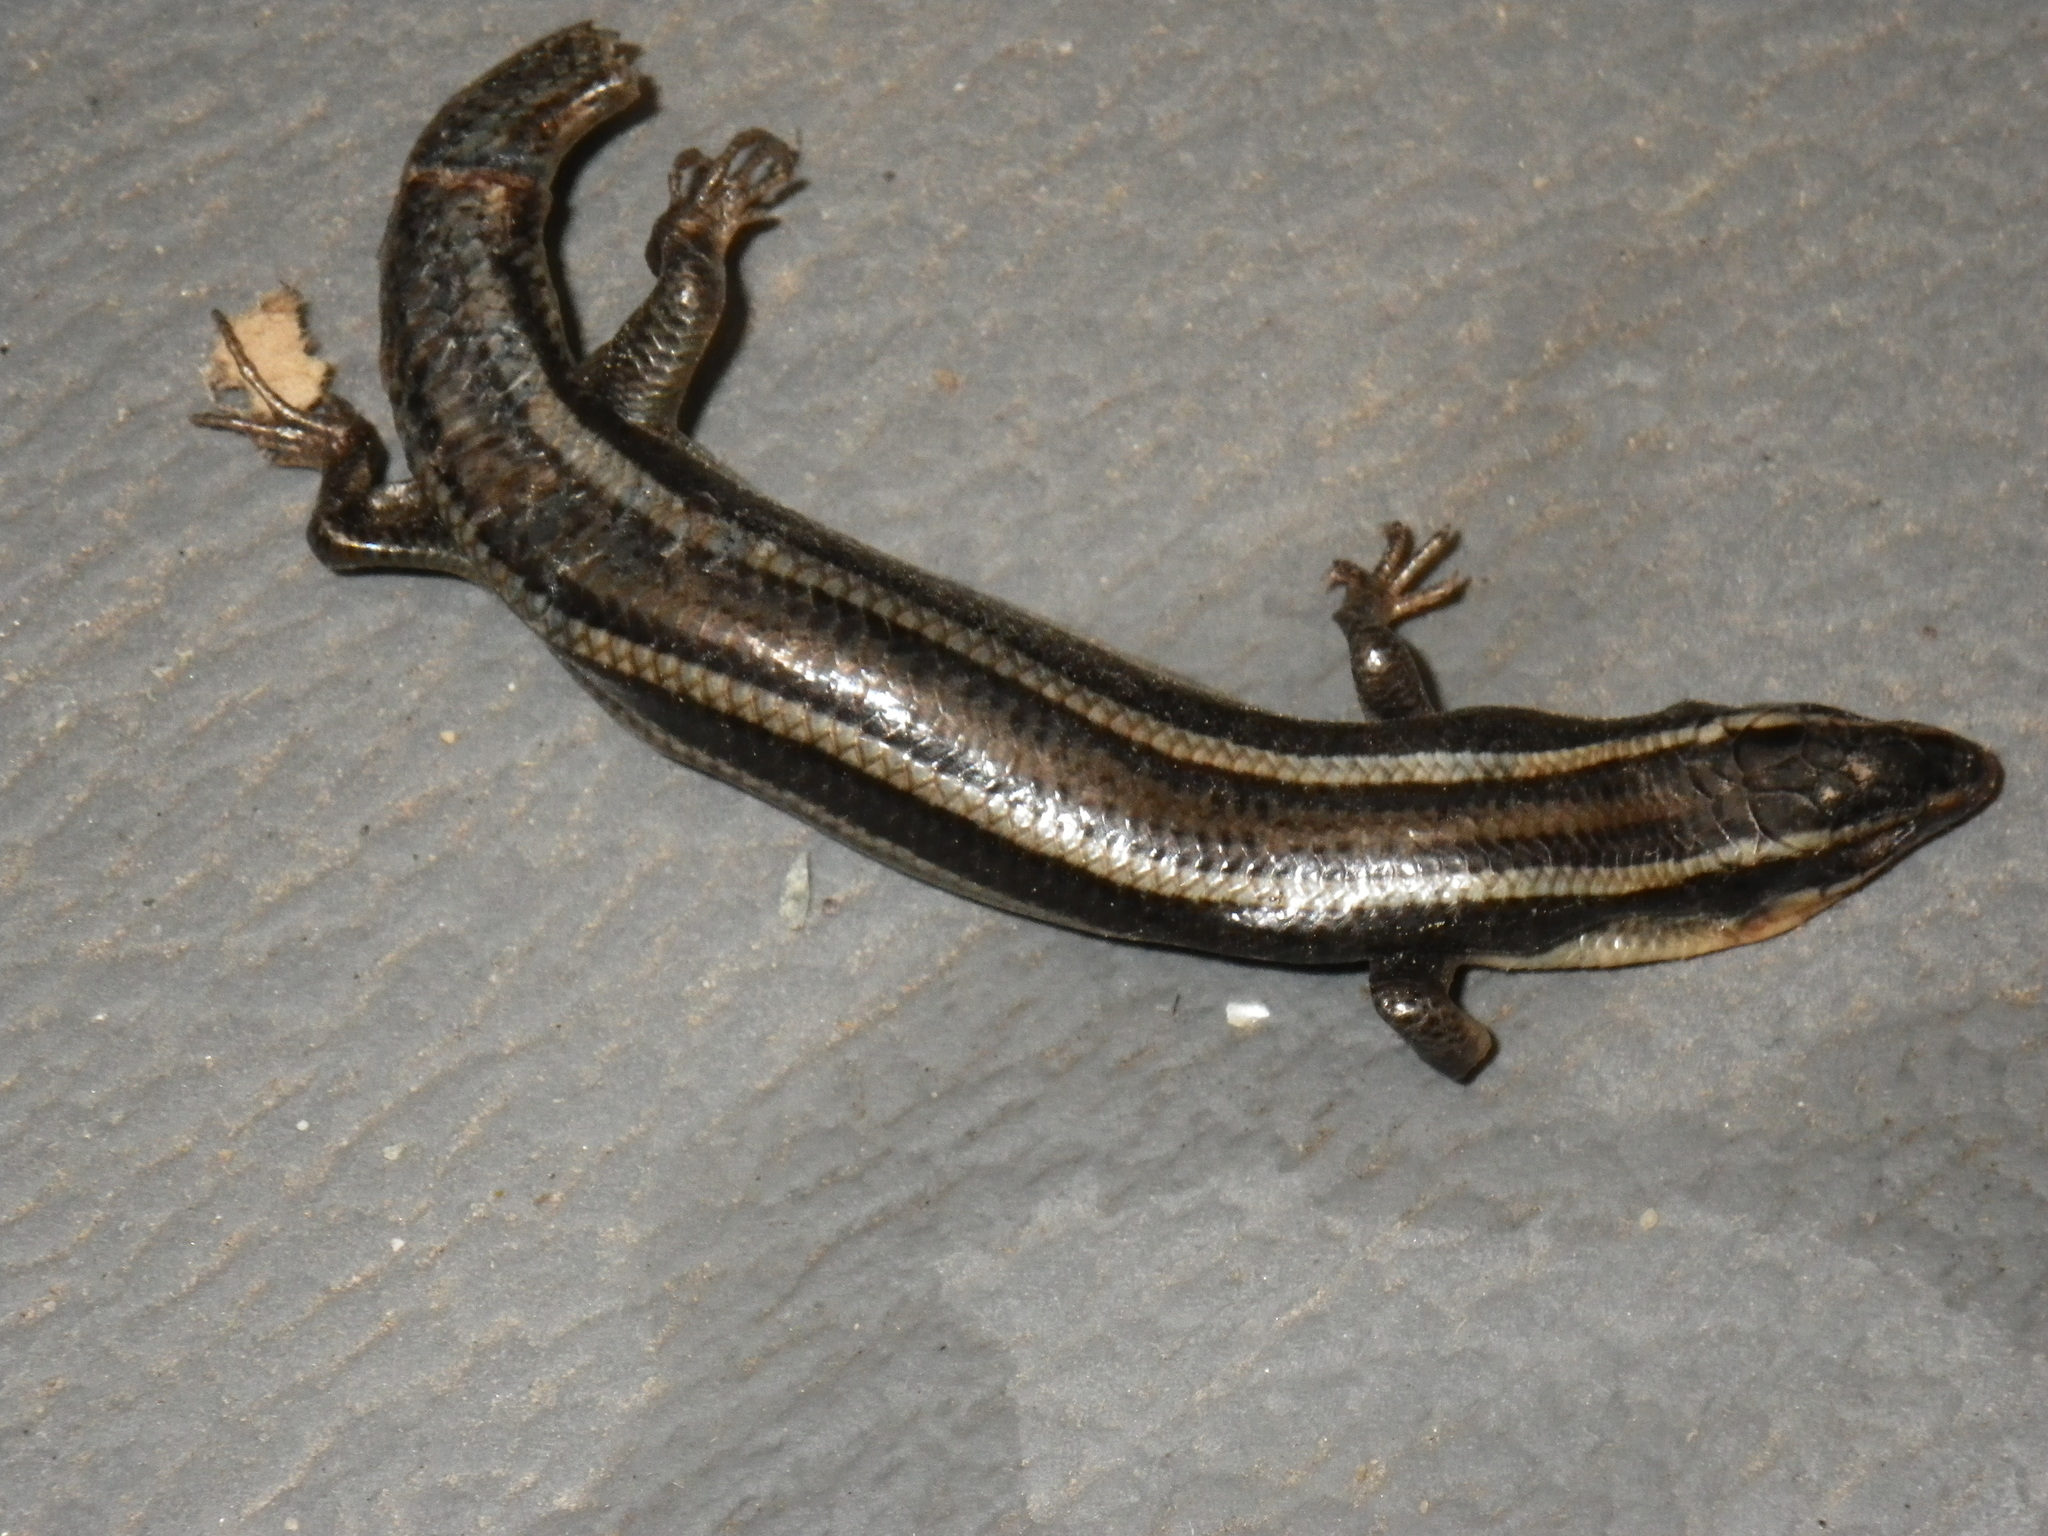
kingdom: Animalia
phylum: Chordata
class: Squamata
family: Scincidae
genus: Plestiodon
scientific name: Plestiodon gilberti
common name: Gilbert's skink
